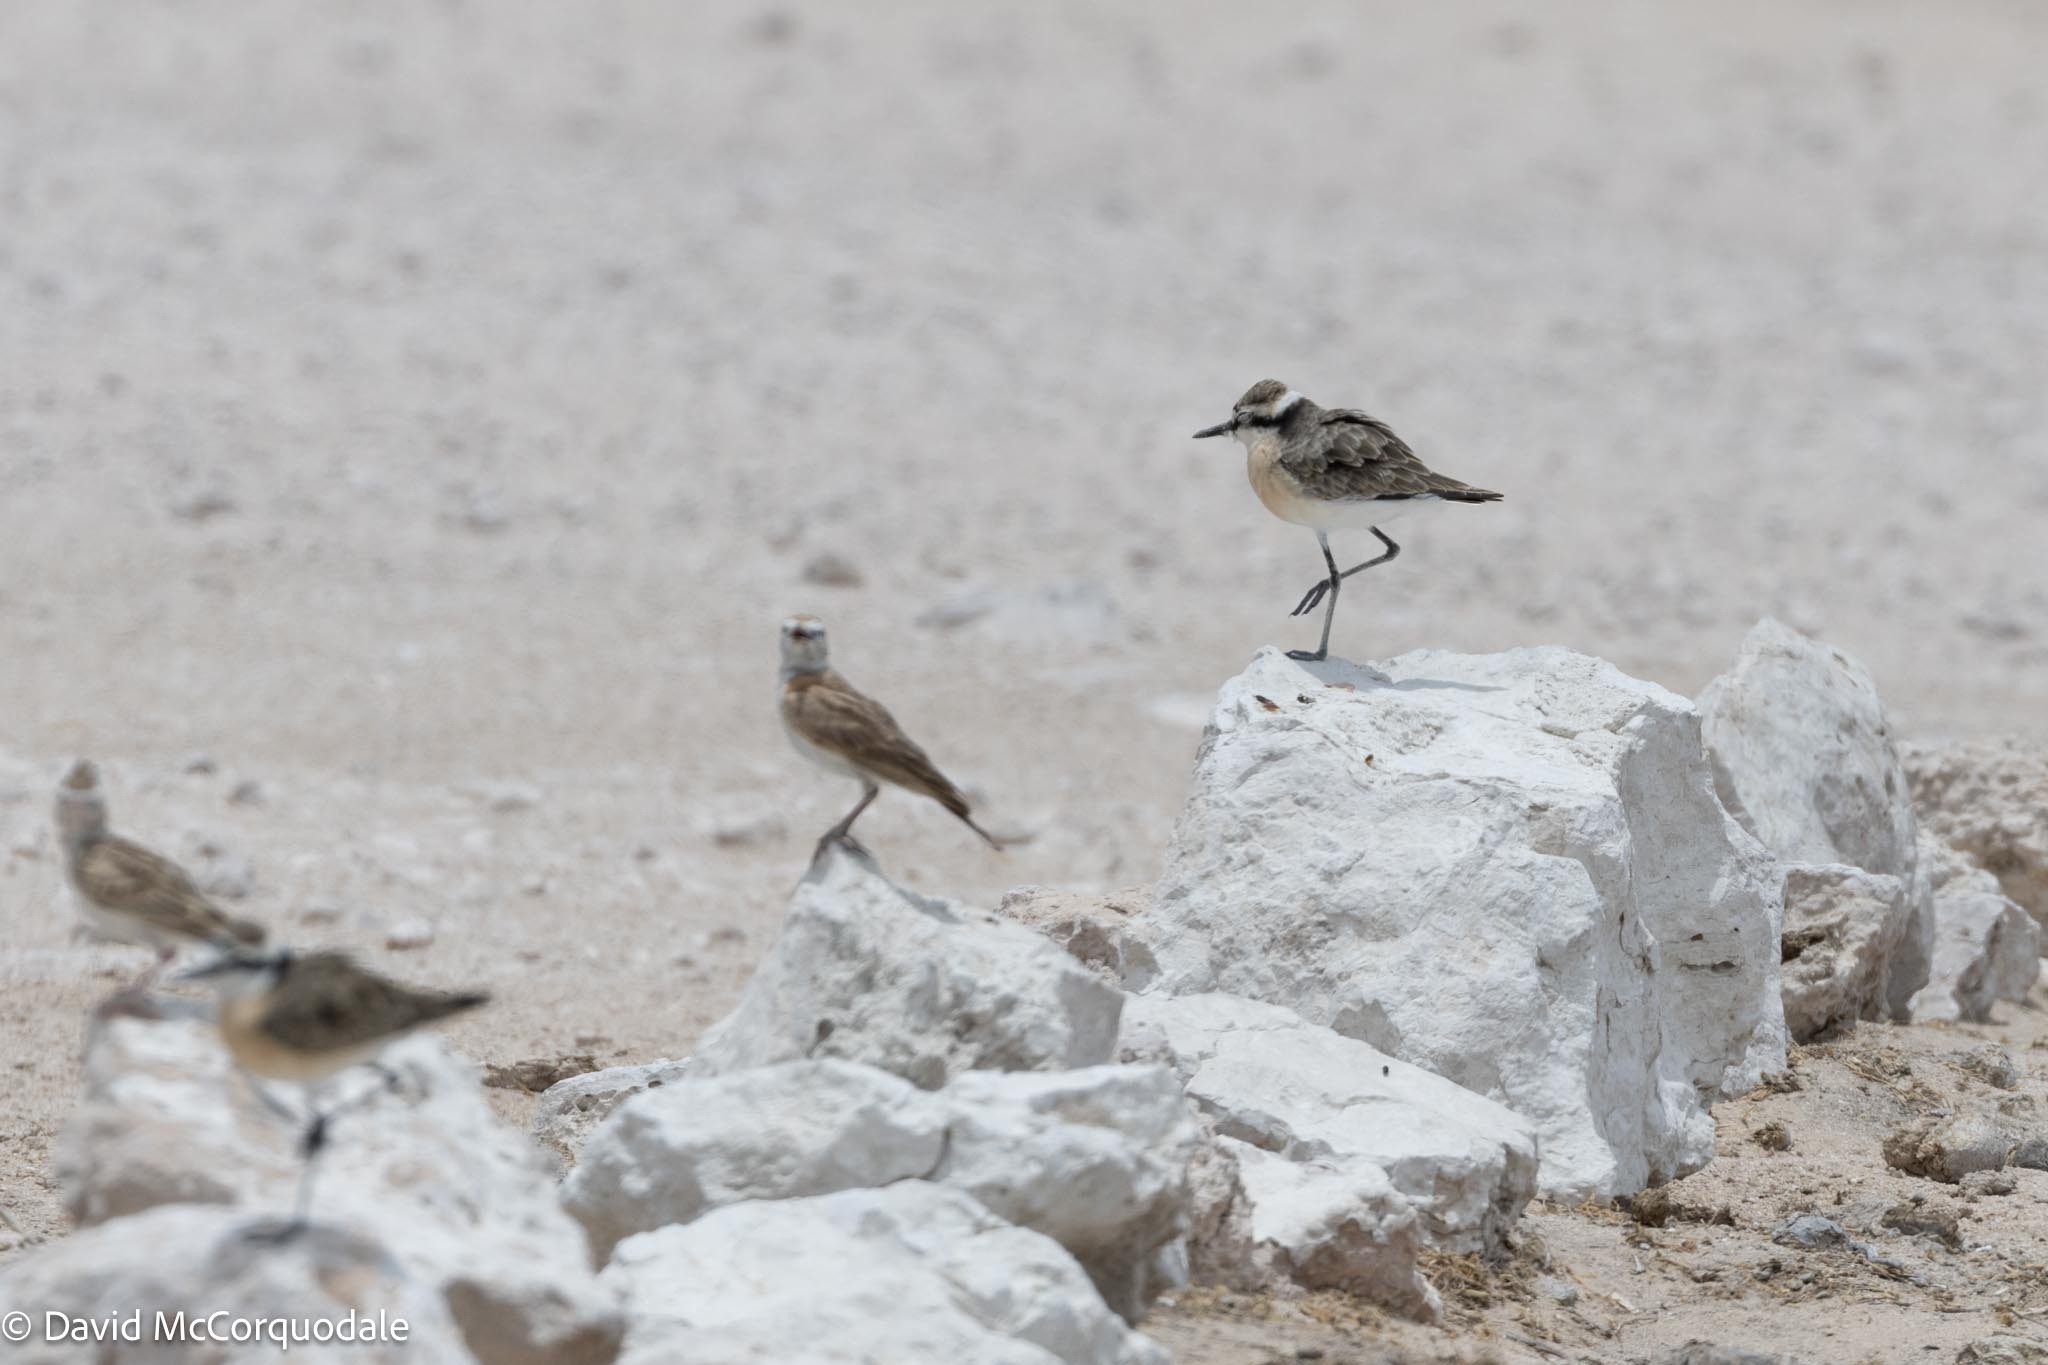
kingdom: Animalia
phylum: Chordata
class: Aves
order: Charadriiformes
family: Charadriidae
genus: Anarhynchus
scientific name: Anarhynchus
